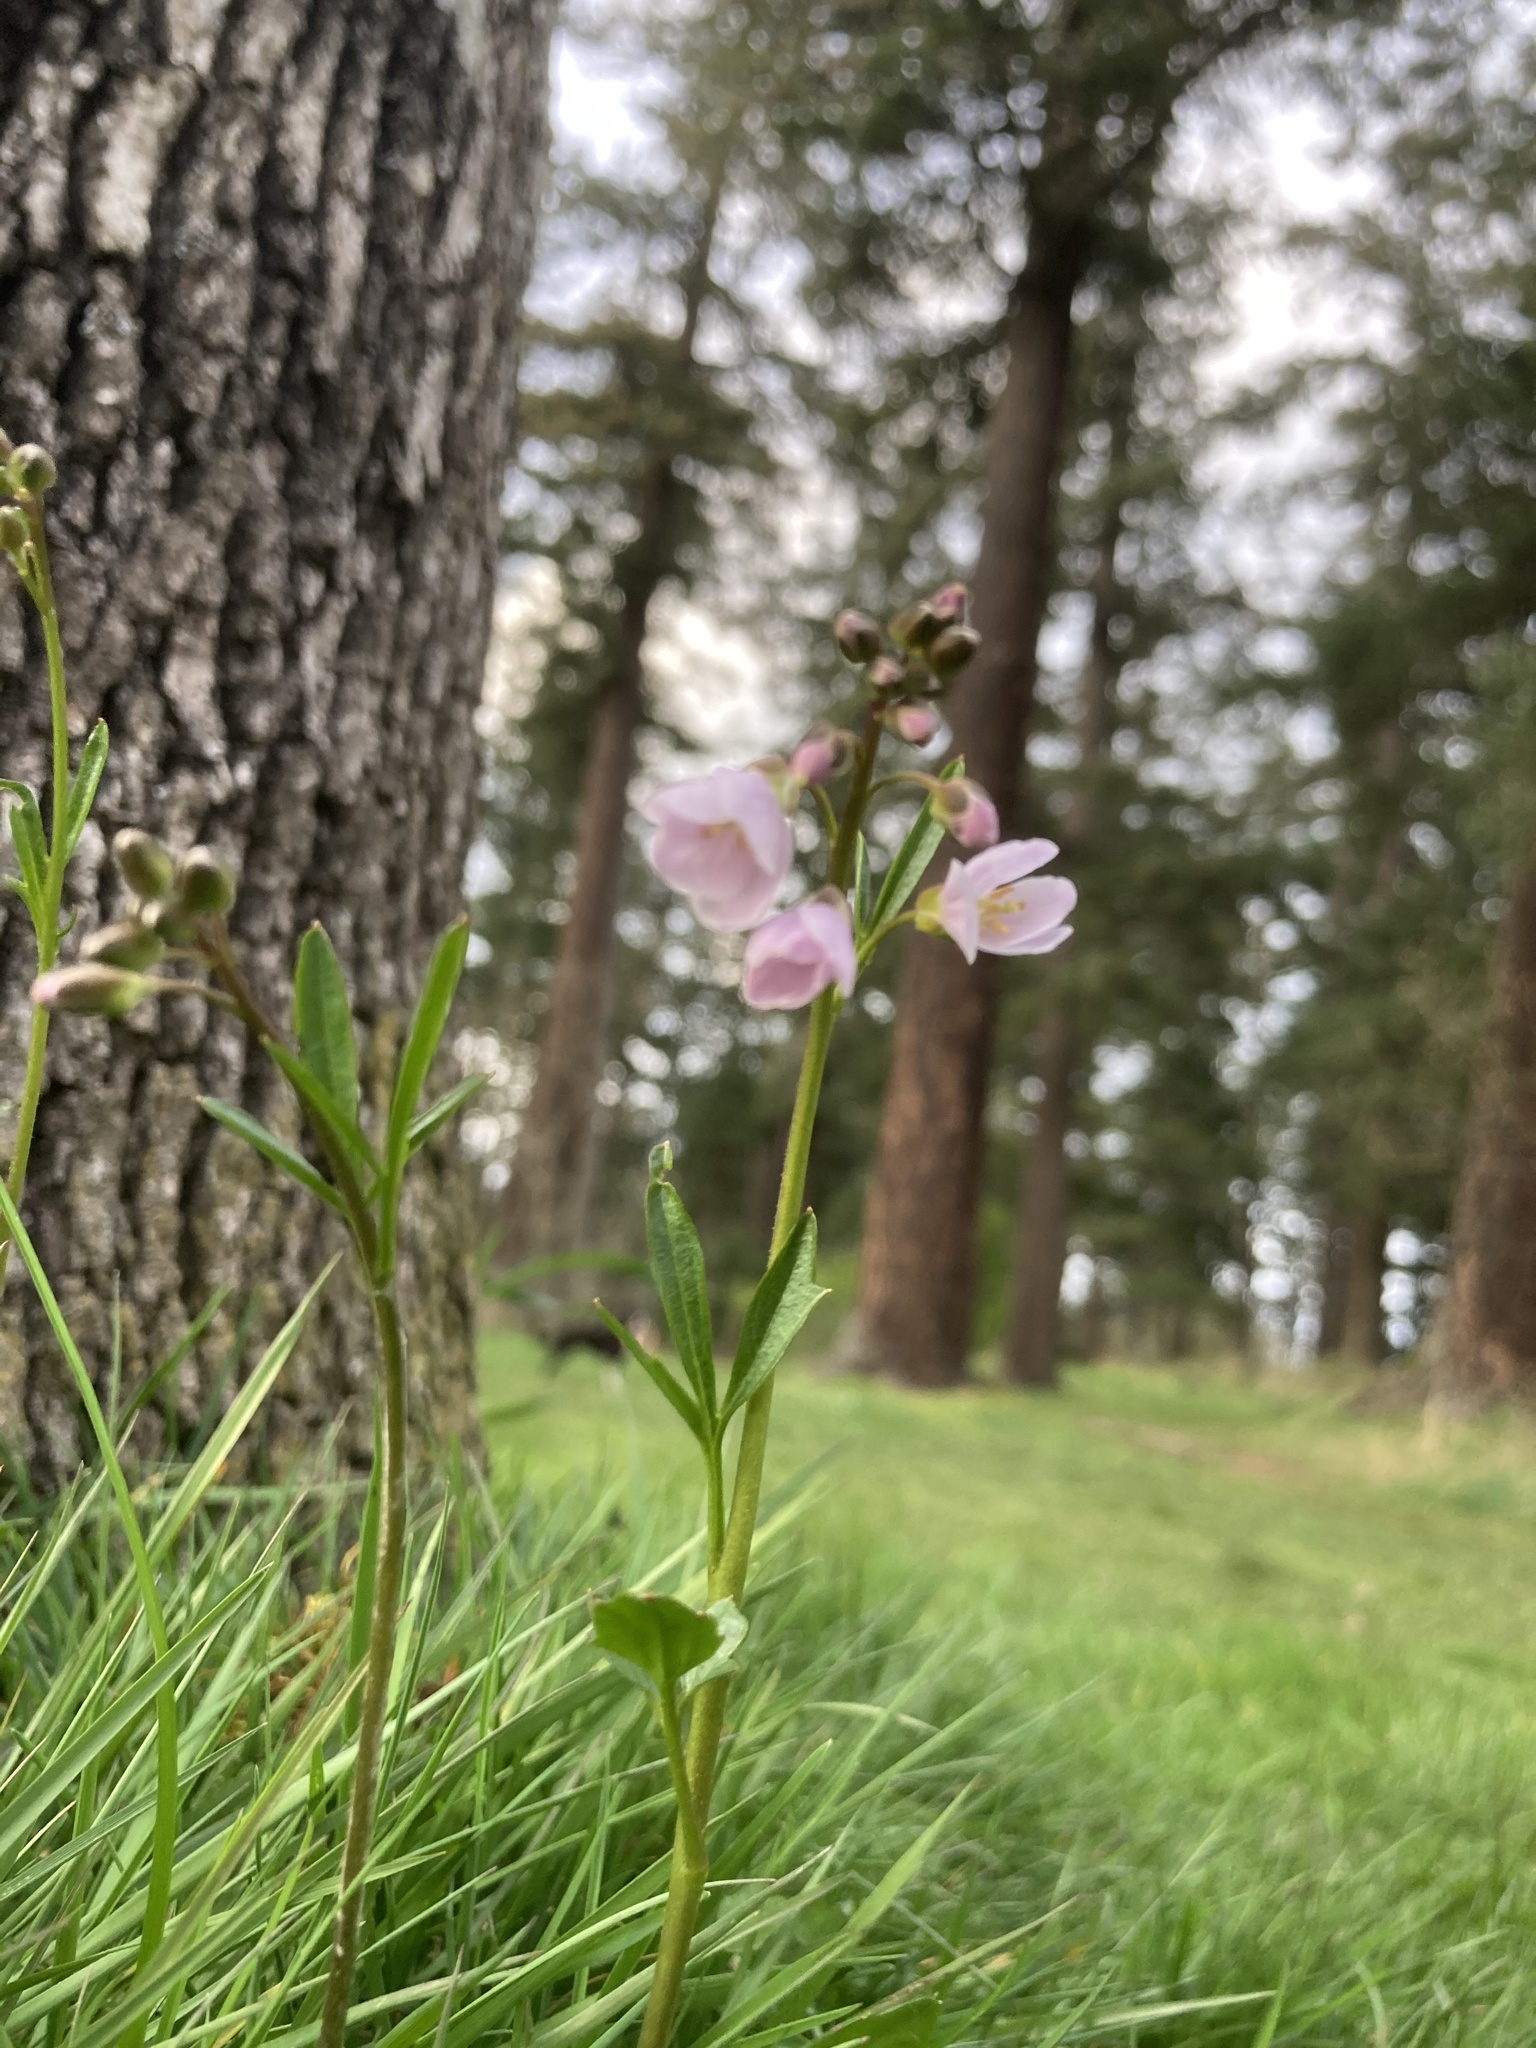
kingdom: Plantae
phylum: Tracheophyta
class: Magnoliopsida
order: Brassicales
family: Brassicaceae
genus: Cardamine
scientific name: Cardamine nuttallii
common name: Nuttall's toothwort
